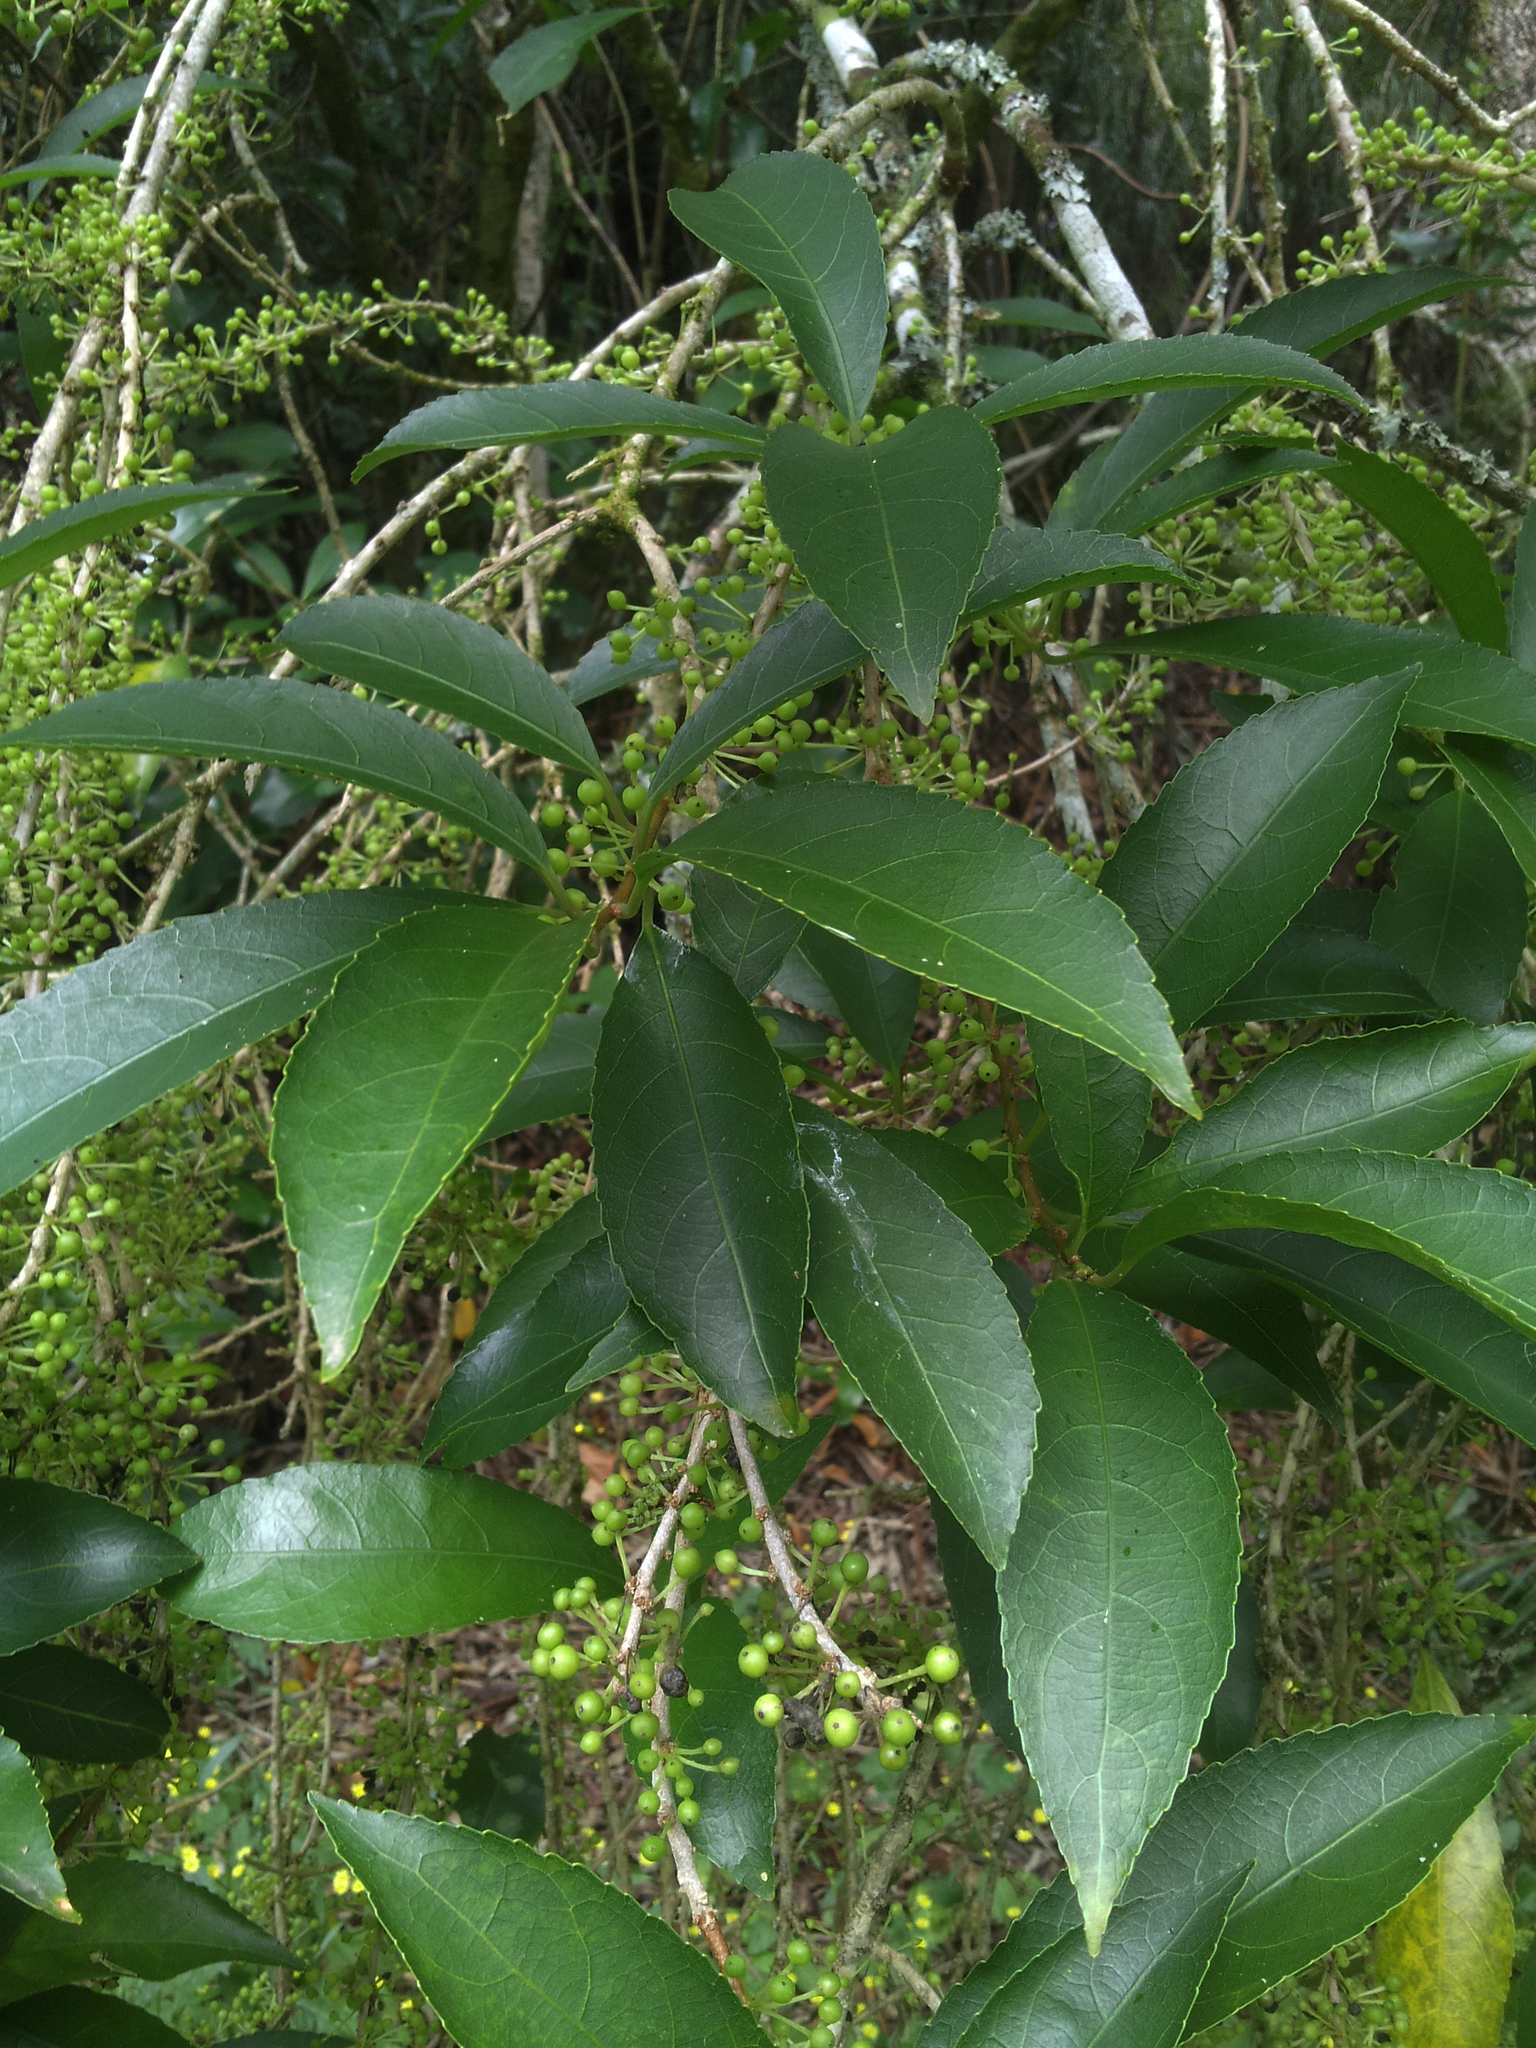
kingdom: Plantae
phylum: Tracheophyta
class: Magnoliopsida
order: Malpighiales
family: Violaceae
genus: Melicytus
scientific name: Melicytus ramiflorus
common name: Mahoe
